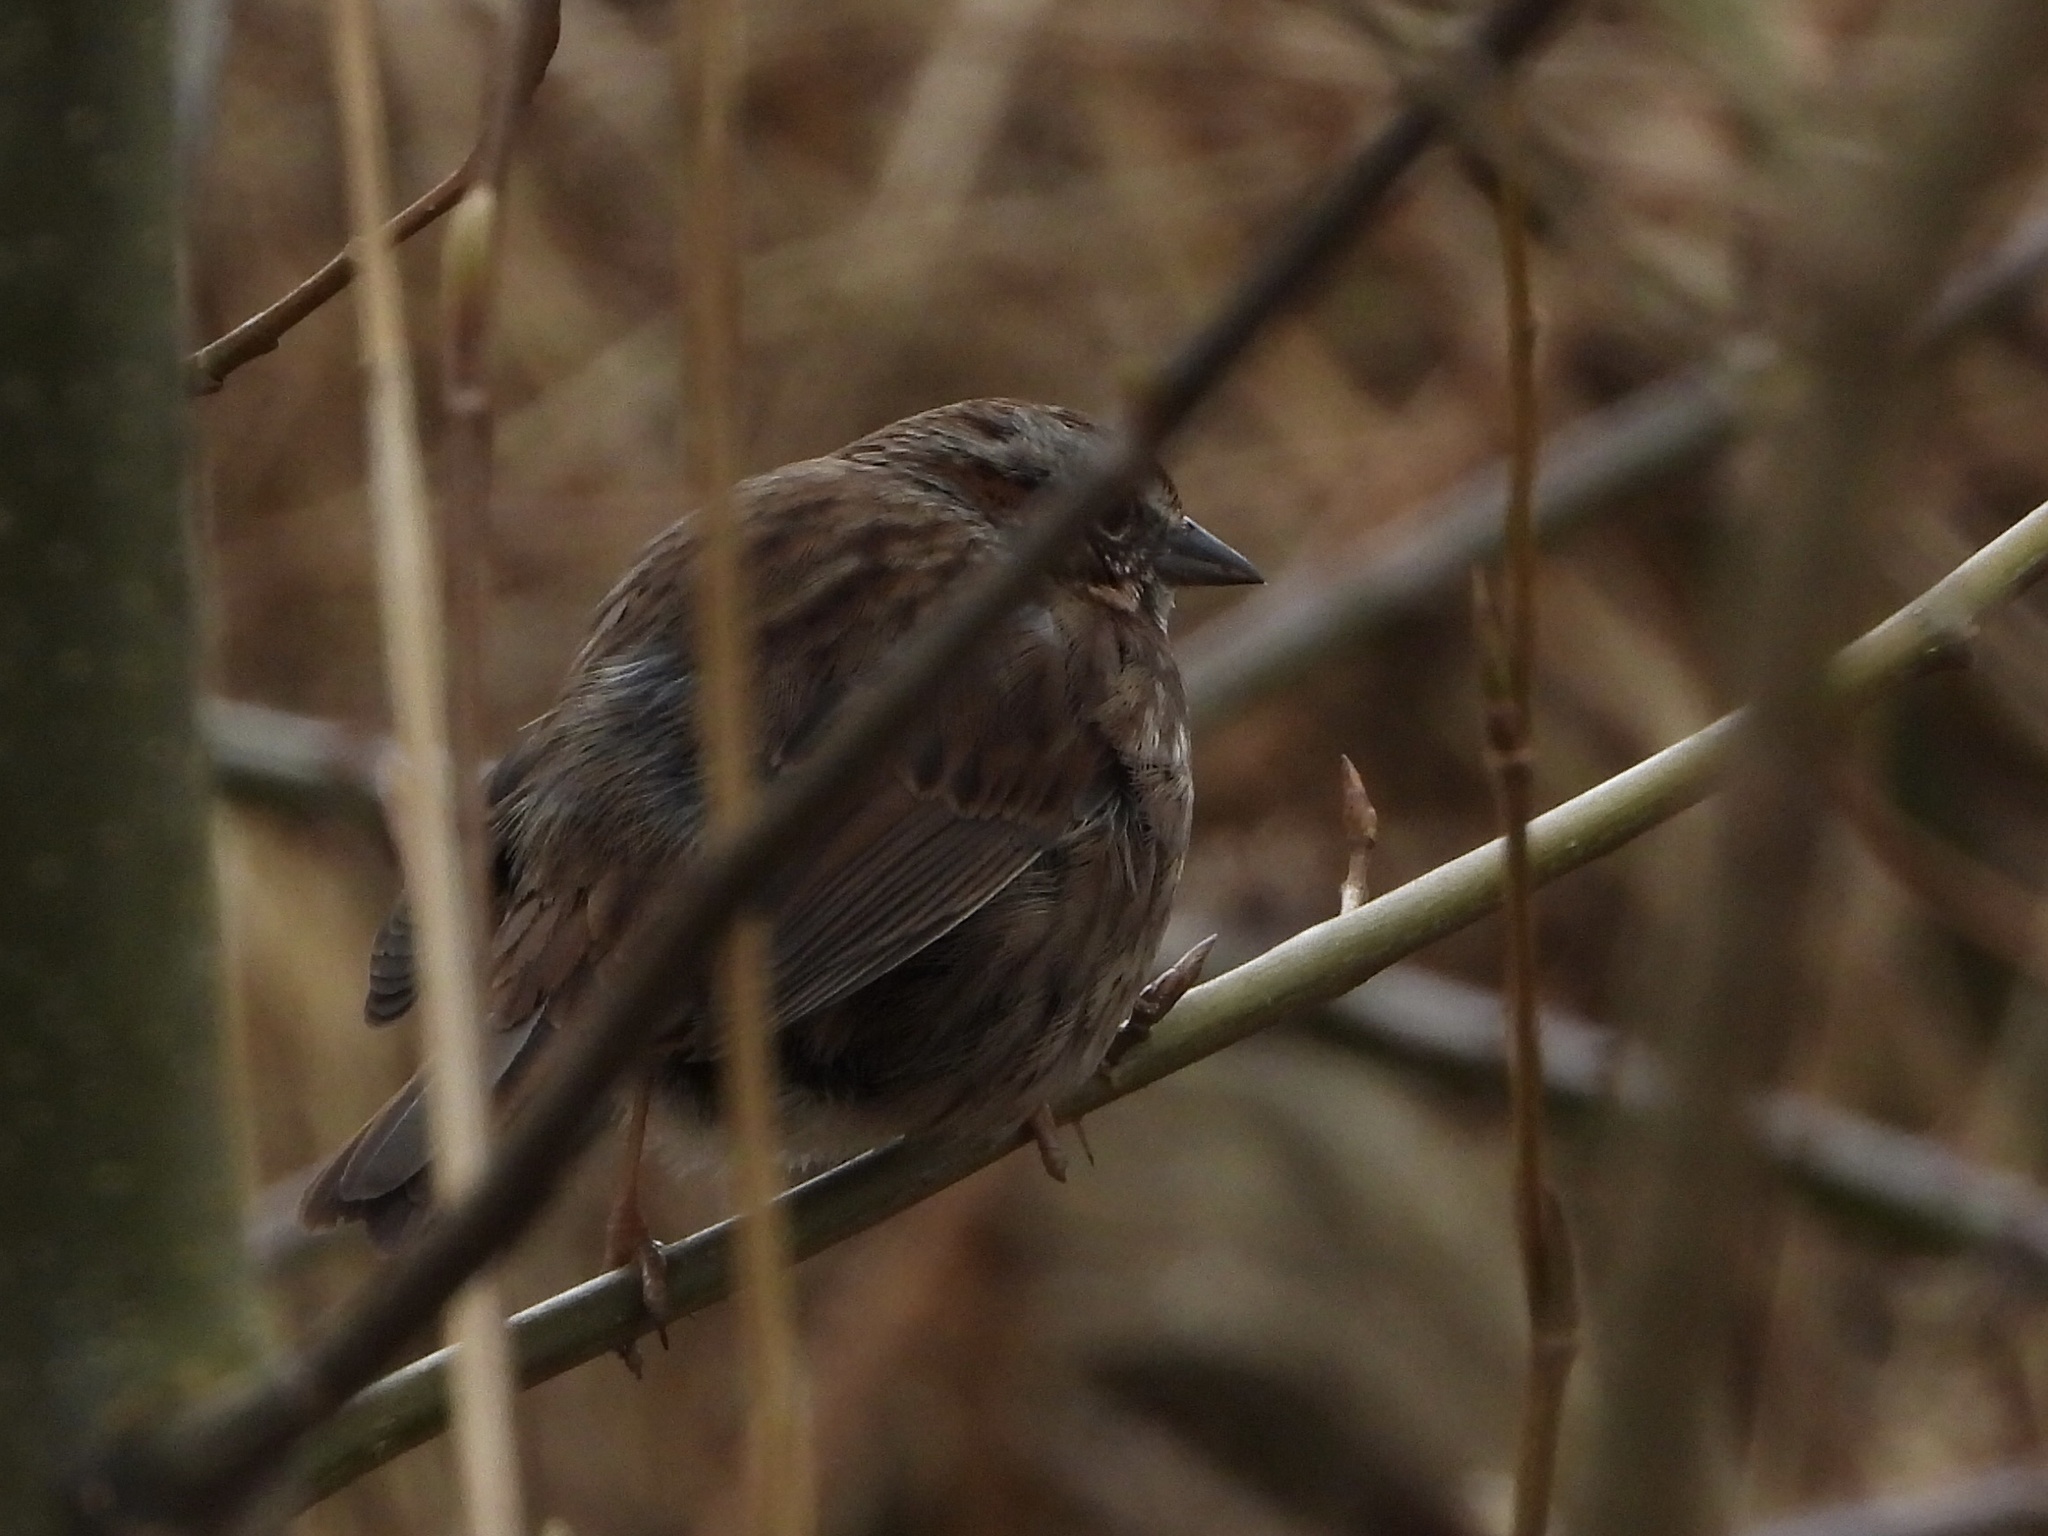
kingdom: Animalia
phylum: Chordata
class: Aves
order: Passeriformes
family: Passerellidae
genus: Melospiza
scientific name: Melospiza melodia
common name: Song sparrow
